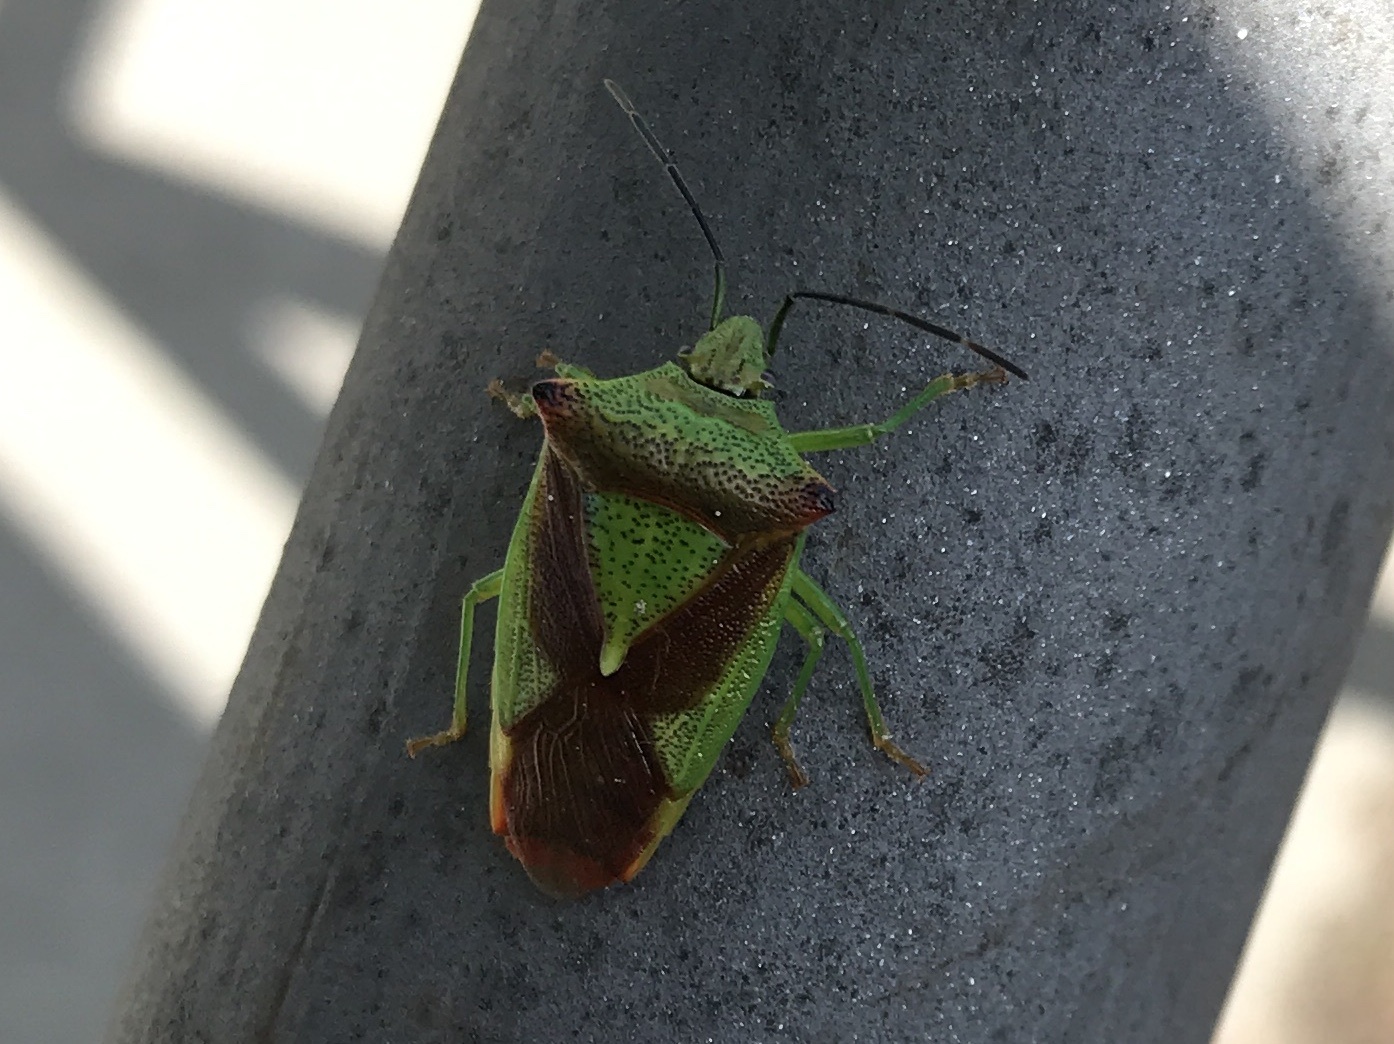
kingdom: Animalia
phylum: Arthropoda
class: Insecta
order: Hemiptera
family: Acanthosomatidae
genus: Acanthosoma
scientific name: Acanthosoma haemorrhoidale
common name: Hawthorn shieldbug
